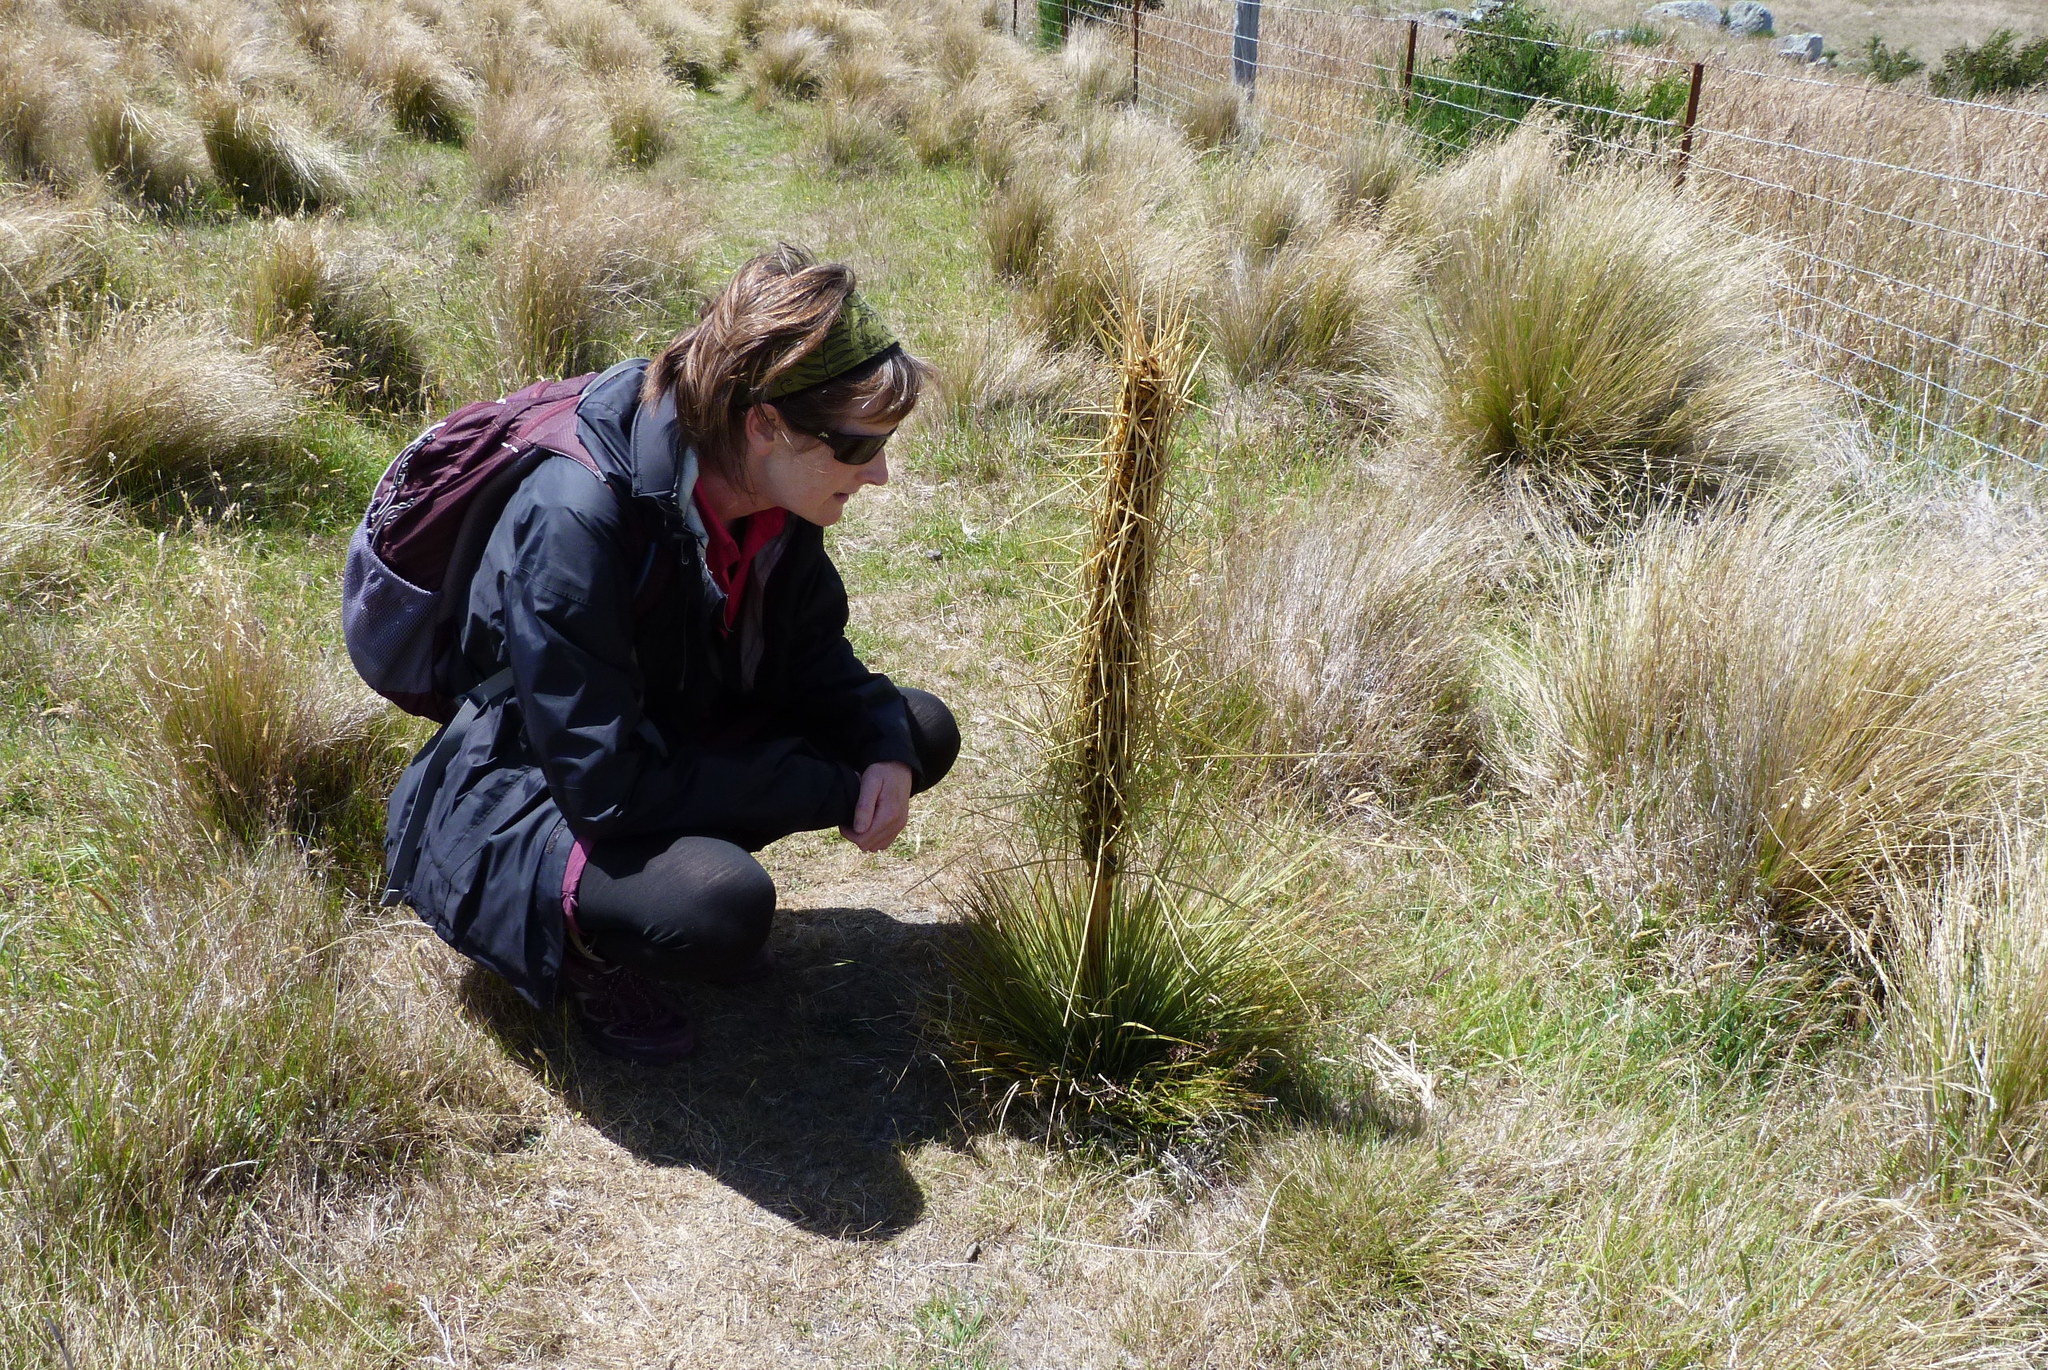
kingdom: Plantae
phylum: Tracheophyta
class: Magnoliopsida
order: Apiales
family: Apiaceae
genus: Aciphylla
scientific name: Aciphylla subflabellata
